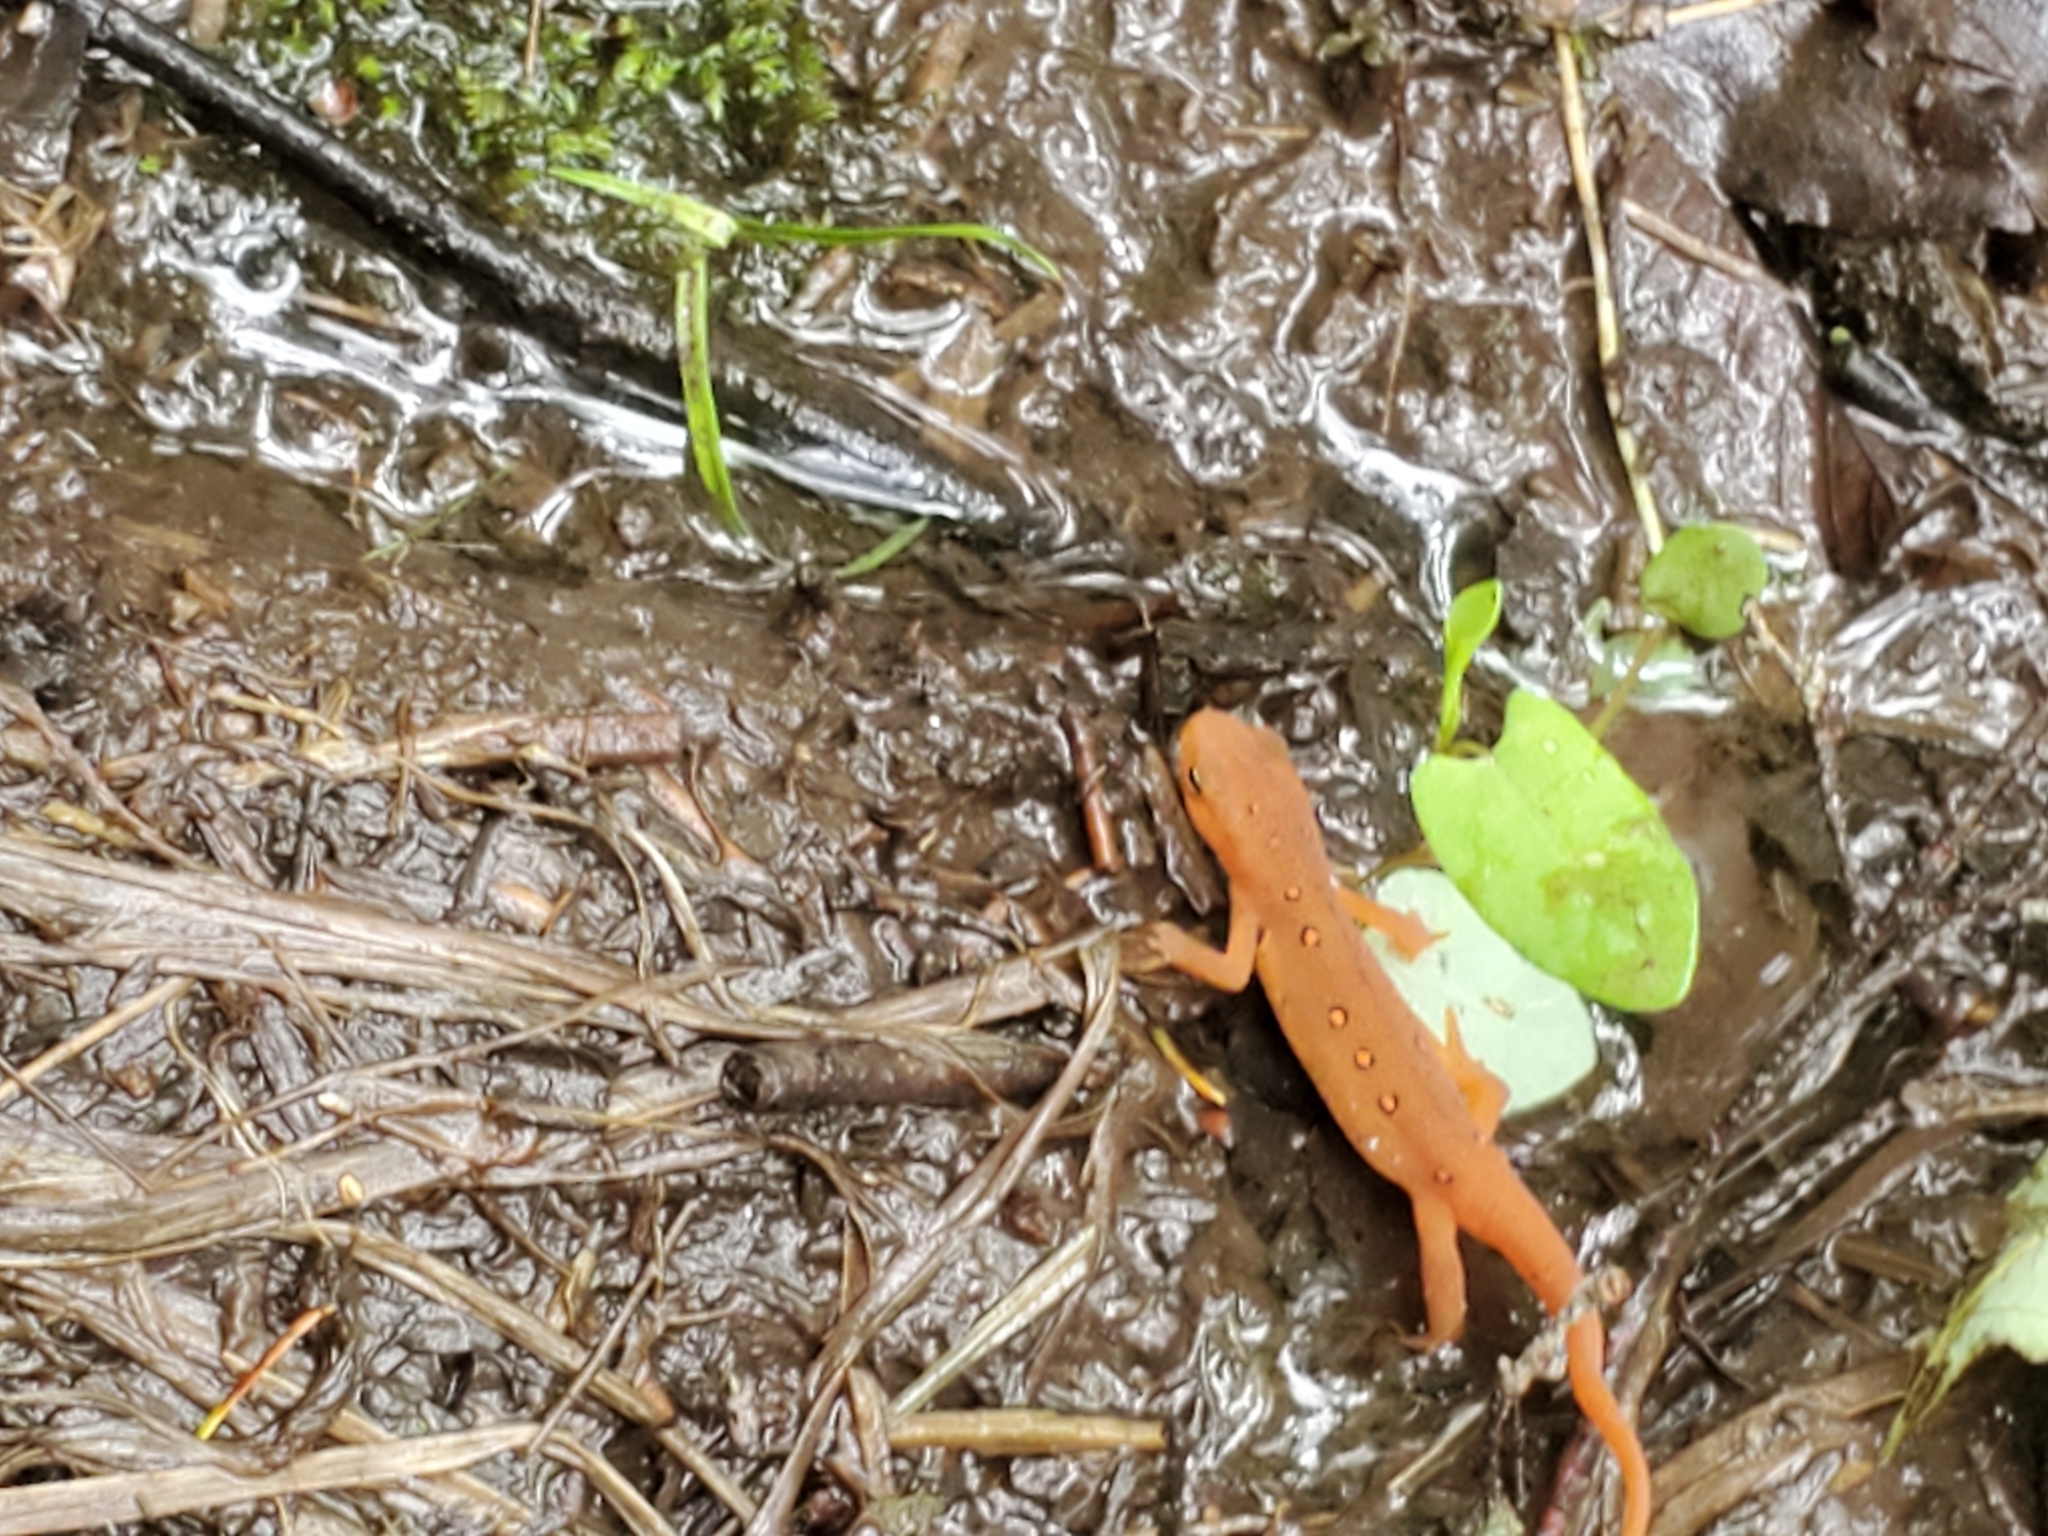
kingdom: Animalia
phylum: Chordata
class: Amphibia
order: Caudata
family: Salamandridae
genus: Notophthalmus
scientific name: Notophthalmus viridescens
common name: Eastern newt
